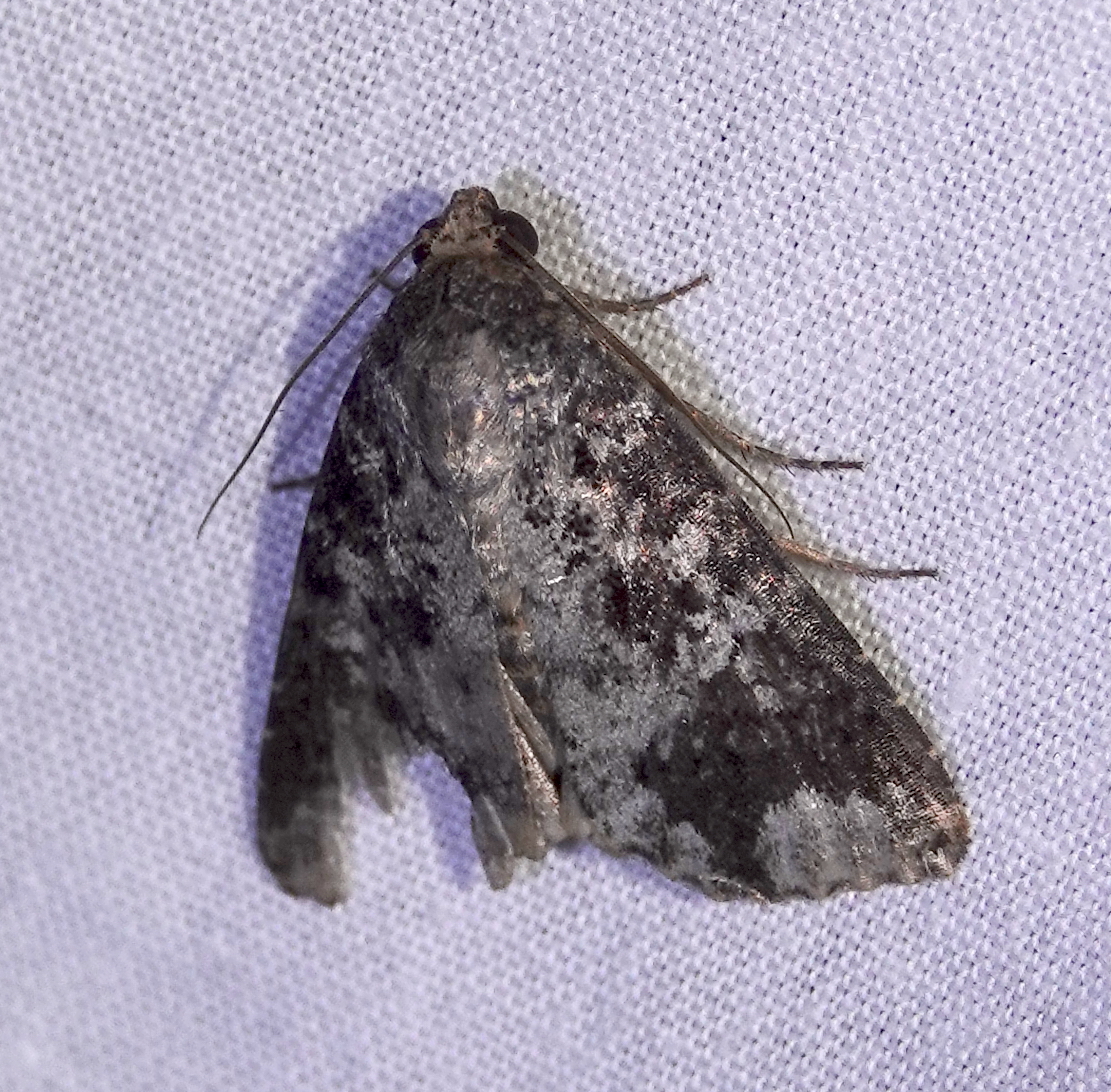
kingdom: Animalia
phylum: Arthropoda
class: Insecta
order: Lepidoptera
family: Noctuidae
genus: Condica
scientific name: Condica cupentia
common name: Splotched groundling
